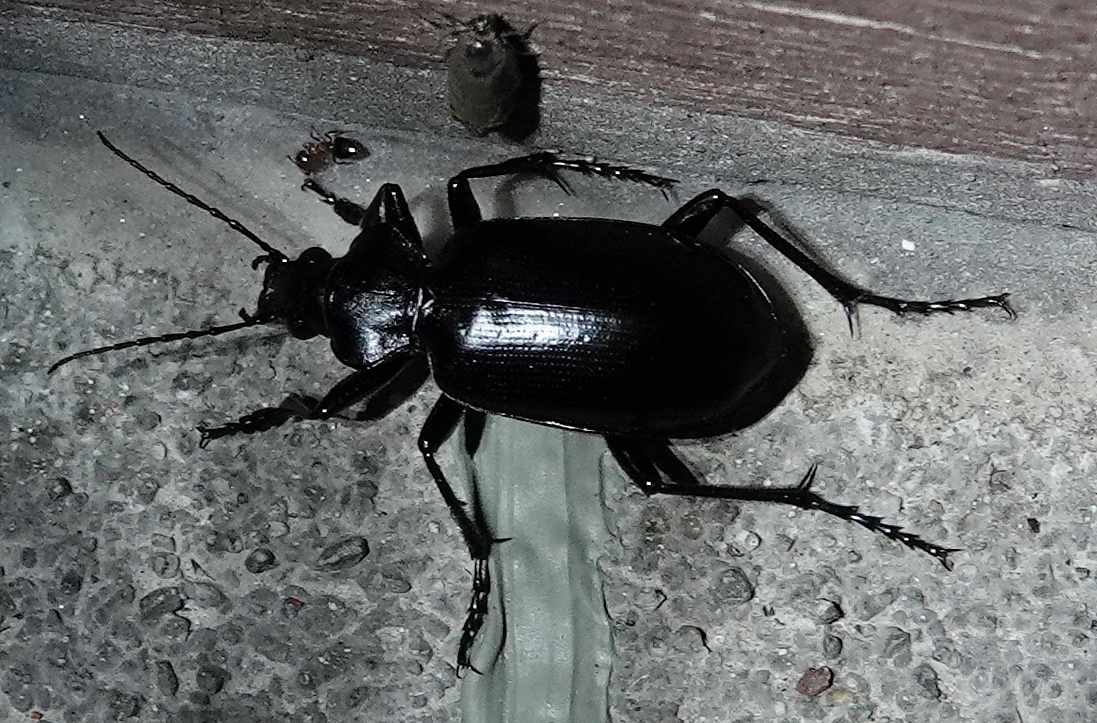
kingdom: Animalia
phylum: Arthropoda
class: Insecta
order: Coleoptera
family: Carabidae
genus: Calosoma
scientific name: Calosoma peregrinator
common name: Ground beetle
